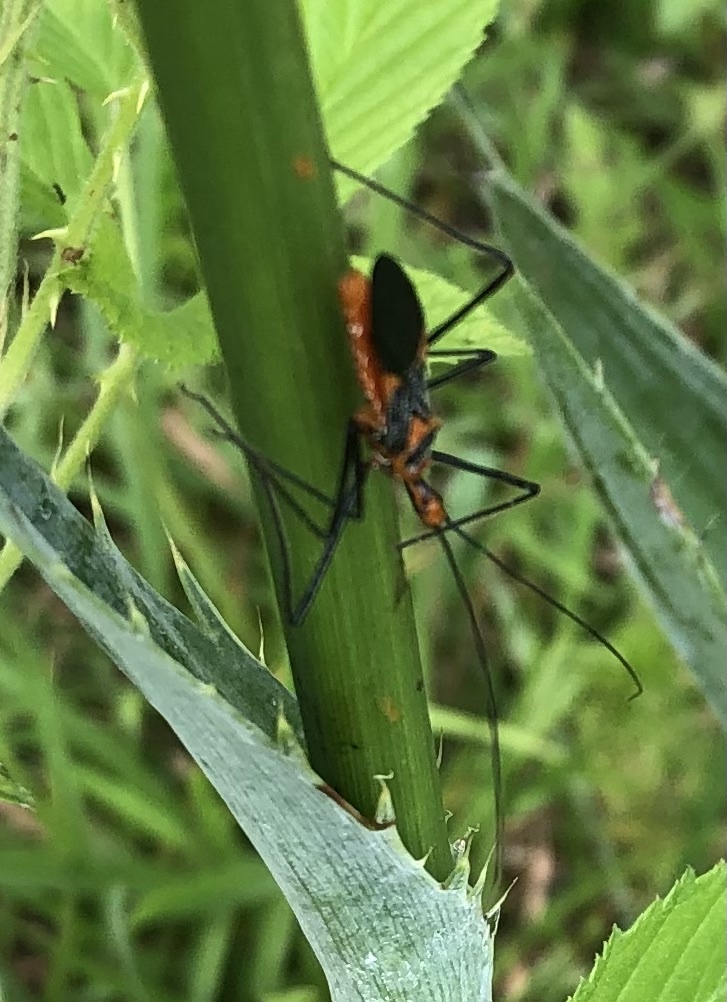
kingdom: Animalia
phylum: Arthropoda
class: Insecta
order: Hemiptera
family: Reduviidae
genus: Zelus
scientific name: Zelus longipes
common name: Milkweed assassin bug
